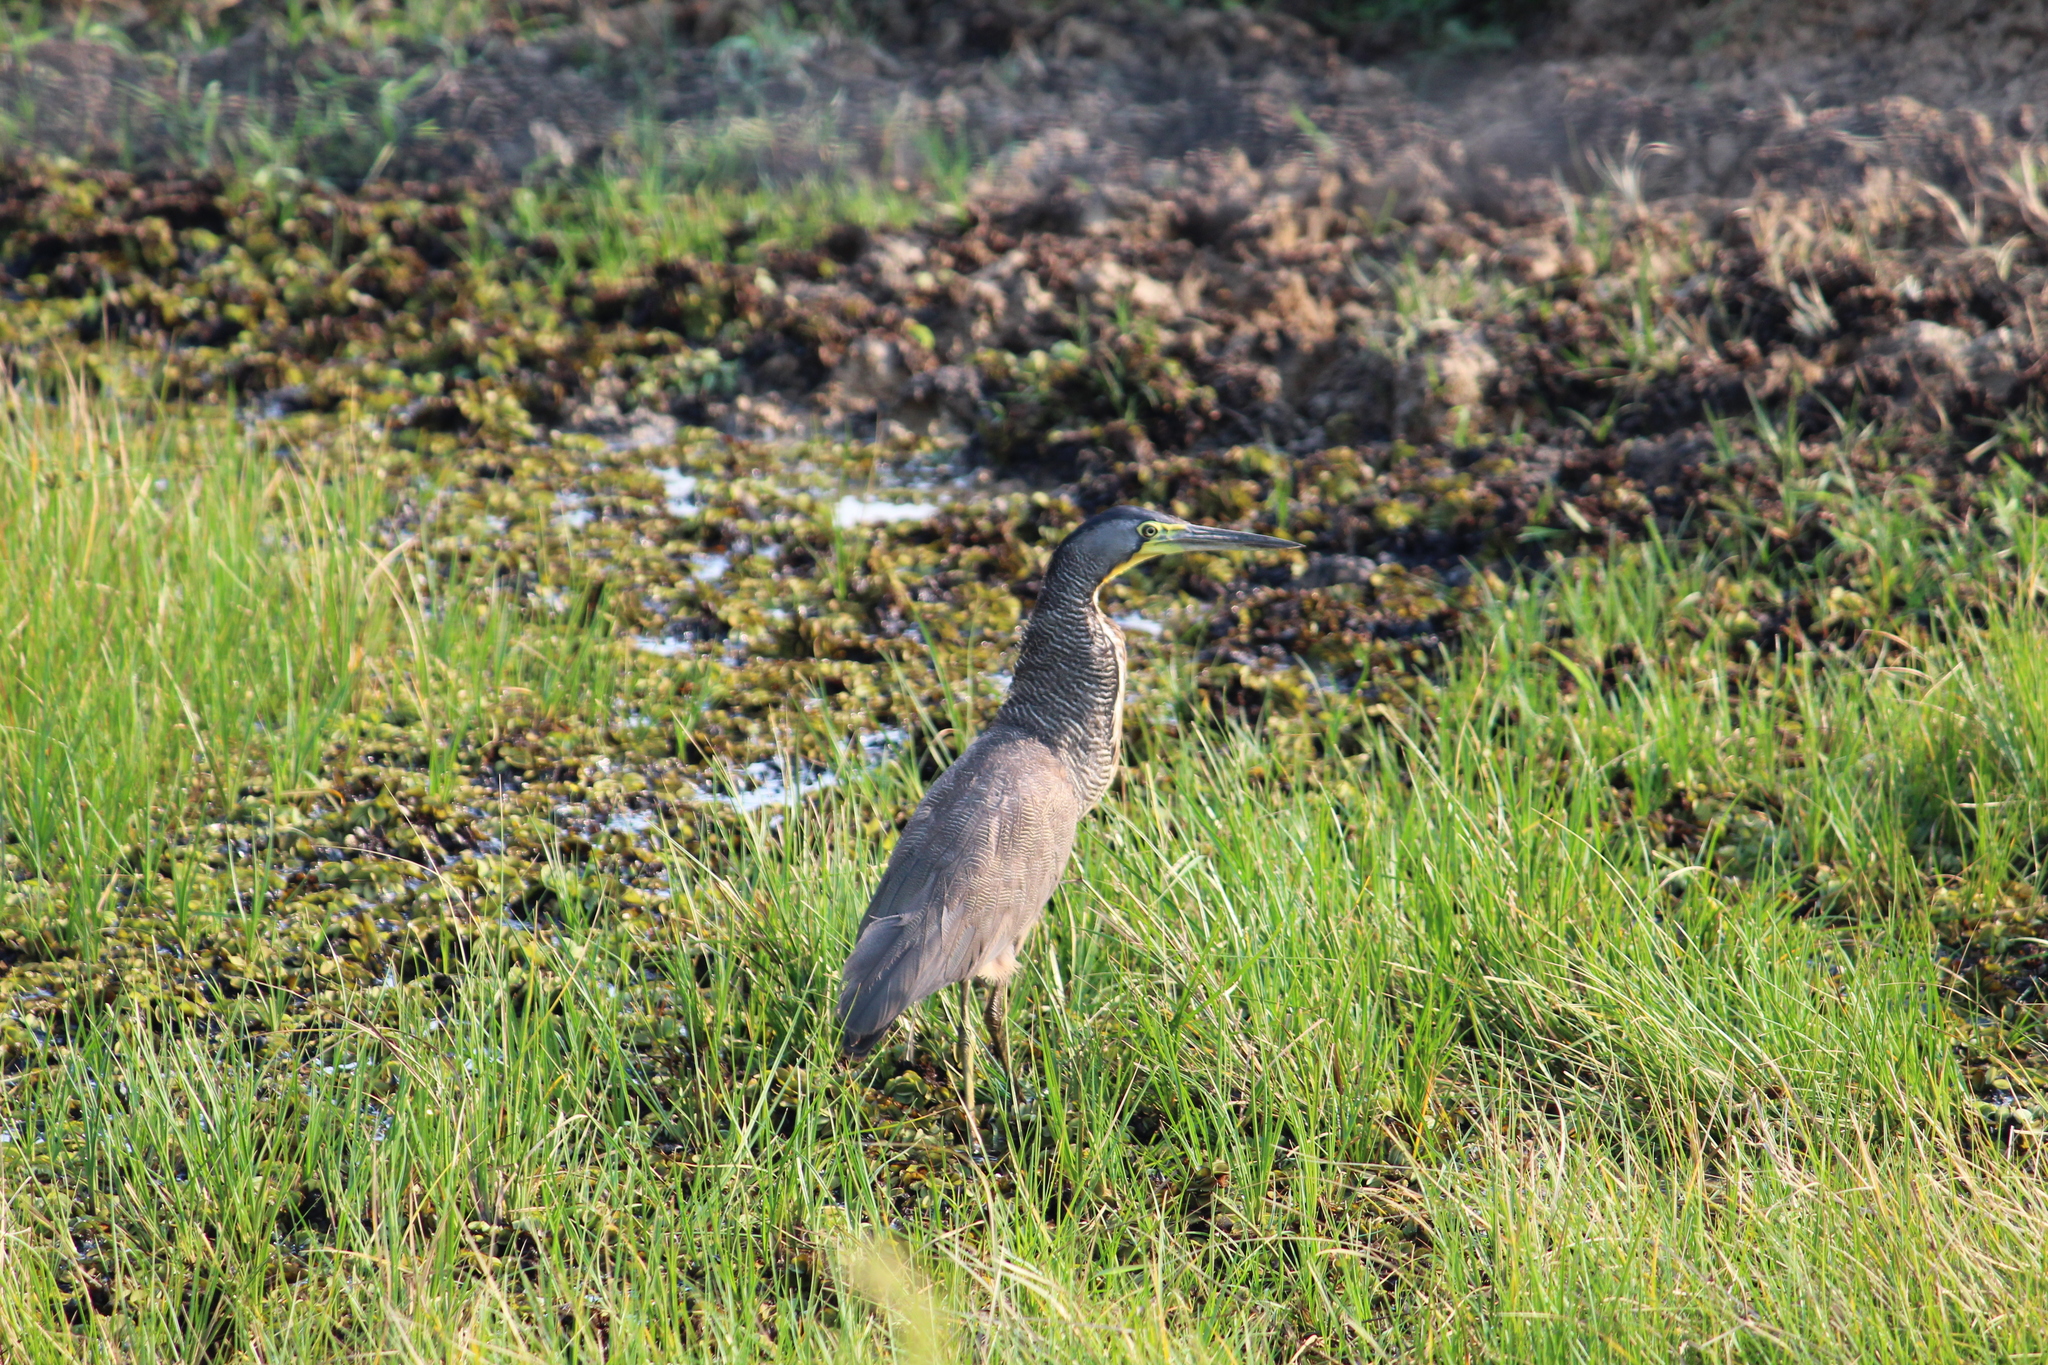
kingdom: Animalia
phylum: Chordata
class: Aves
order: Pelecaniformes
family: Ardeidae
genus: Tigrisoma
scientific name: Tigrisoma mexicanum
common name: Bare-throated tiger-heron
